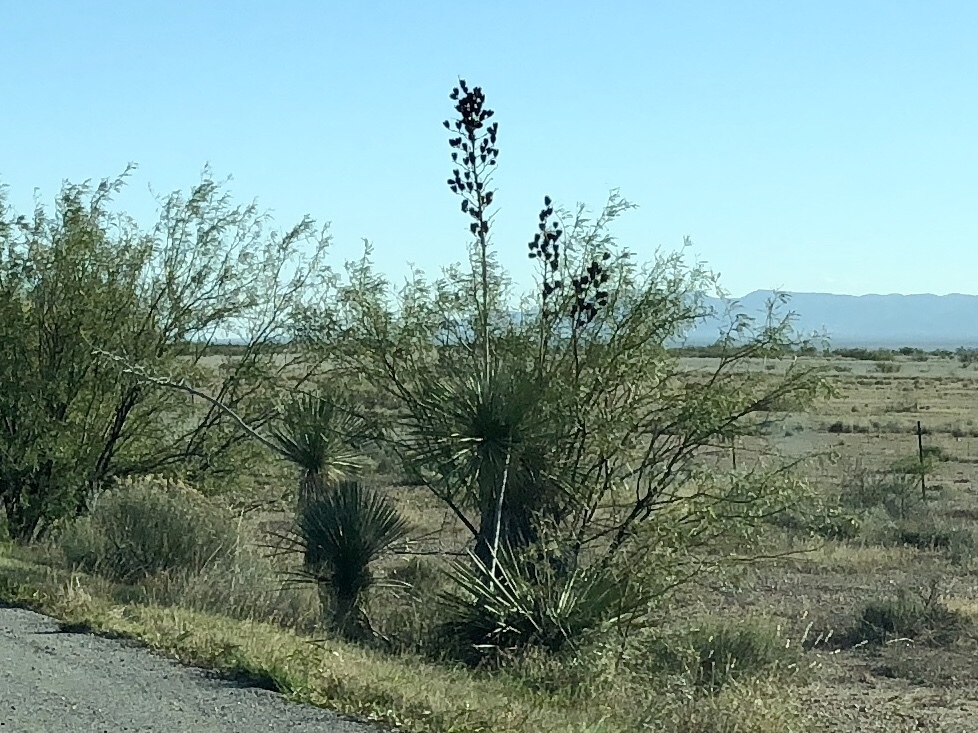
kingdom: Plantae
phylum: Tracheophyta
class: Liliopsida
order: Asparagales
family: Asparagaceae
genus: Yucca
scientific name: Yucca elata
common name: Palmella
